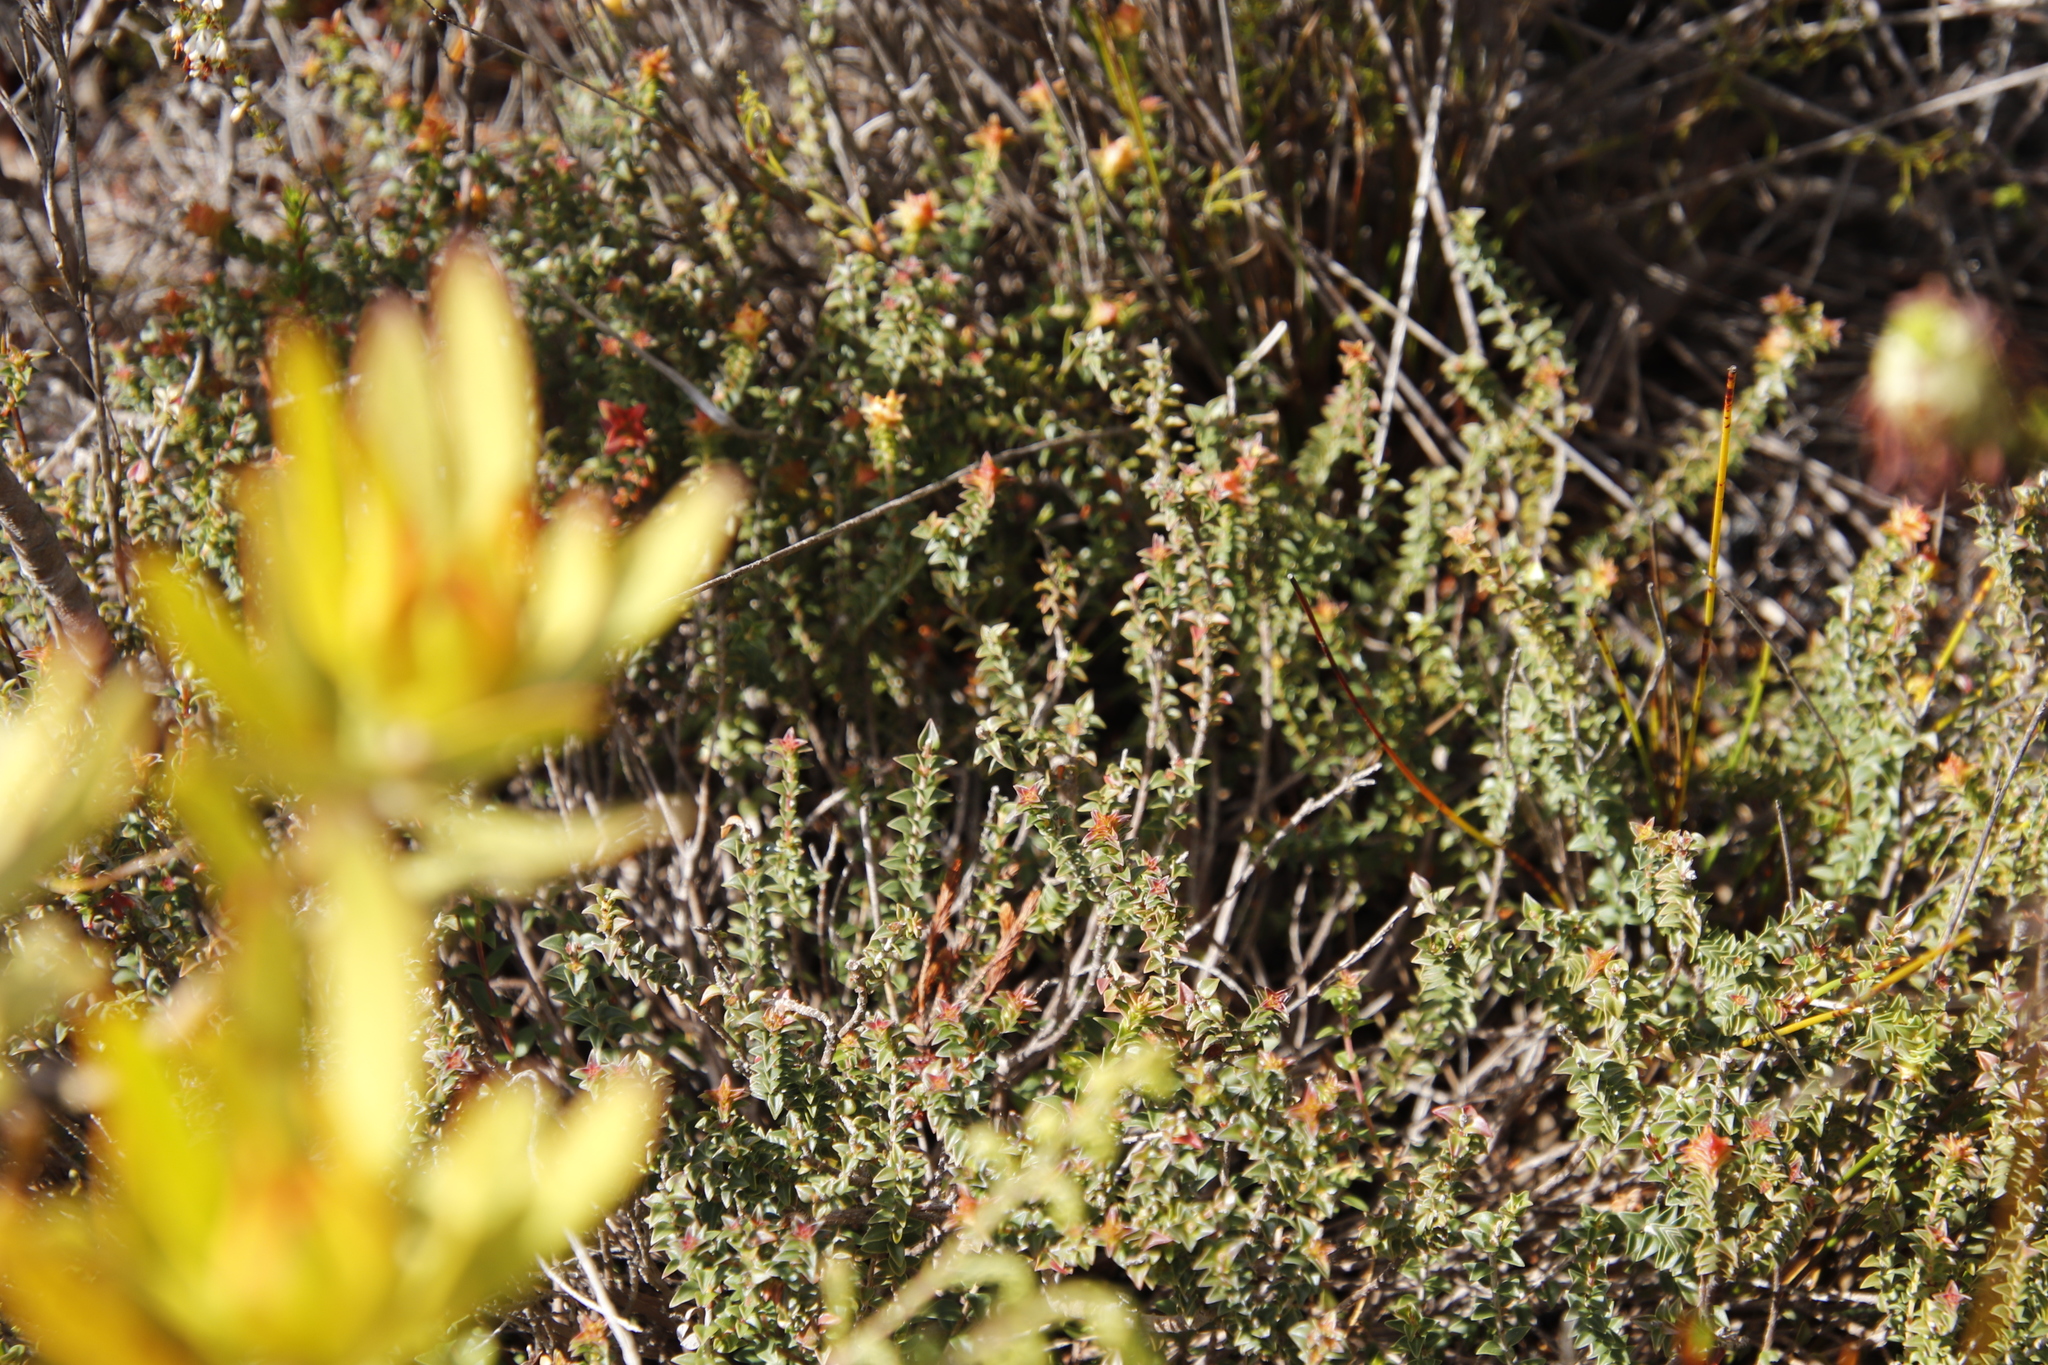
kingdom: Plantae
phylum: Tracheophyta
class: Magnoliopsida
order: Myrtales
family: Penaeaceae
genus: Penaea
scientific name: Penaea mucronata
